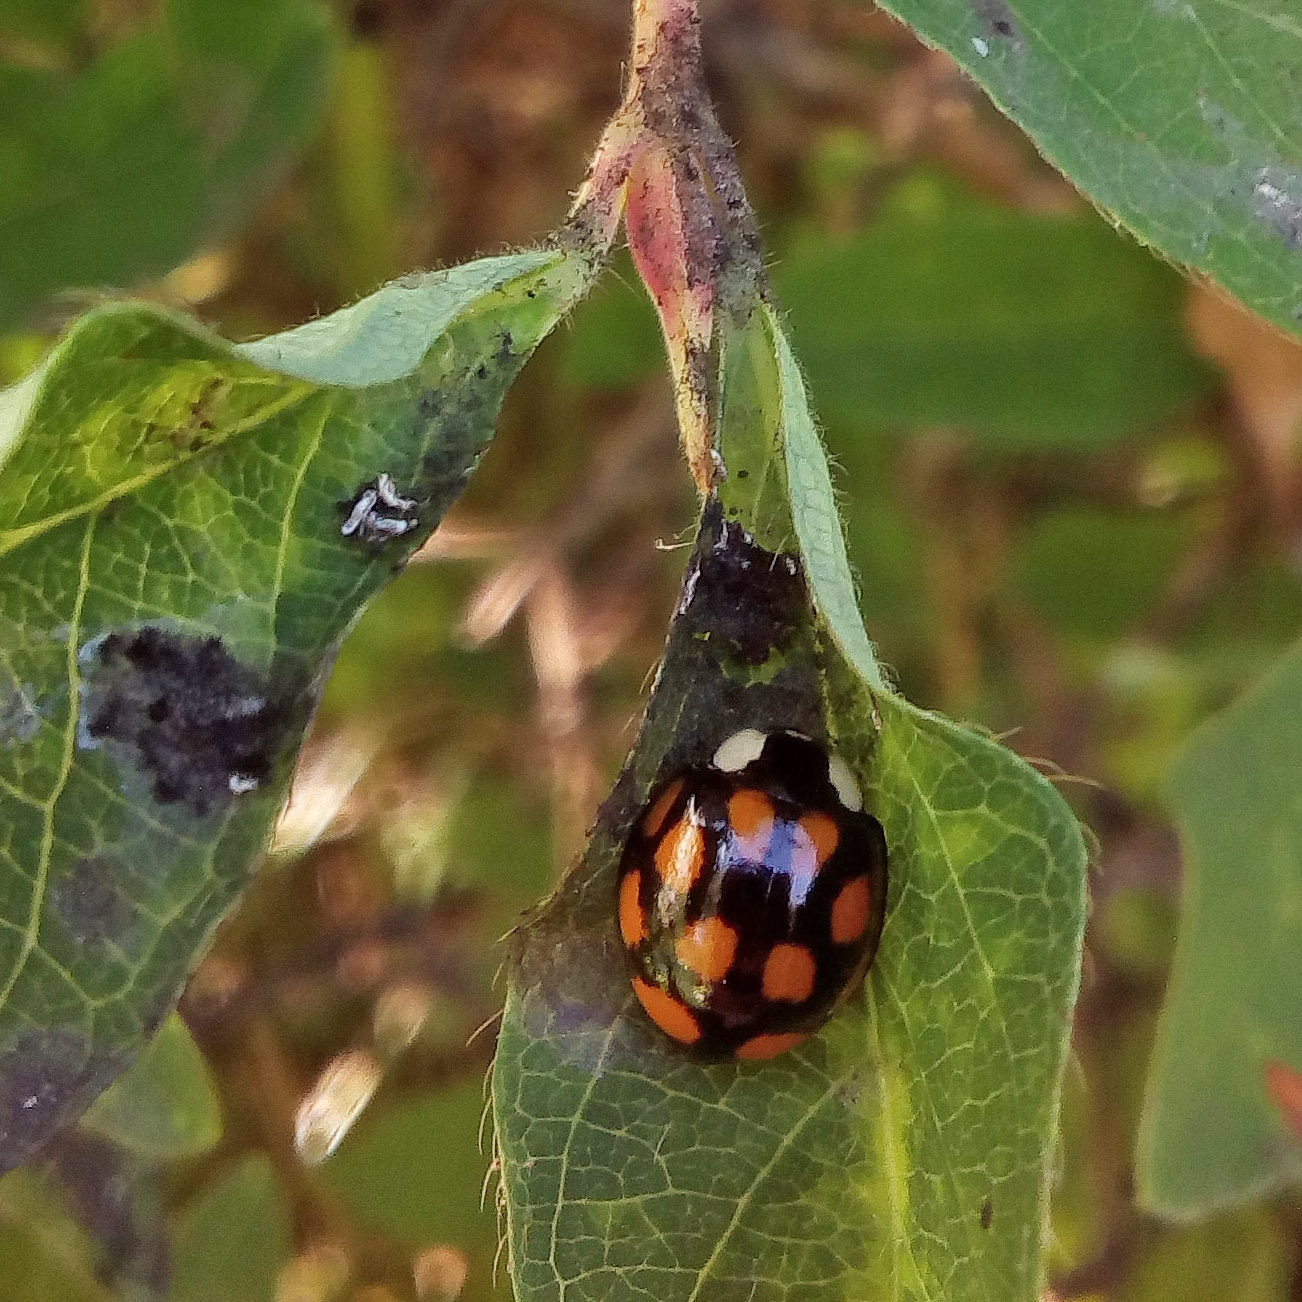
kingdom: Animalia
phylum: Arthropoda
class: Insecta
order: Coleoptera
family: Coccinellidae
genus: Harmonia
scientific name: Harmonia axyridis
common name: Harlequin ladybird
